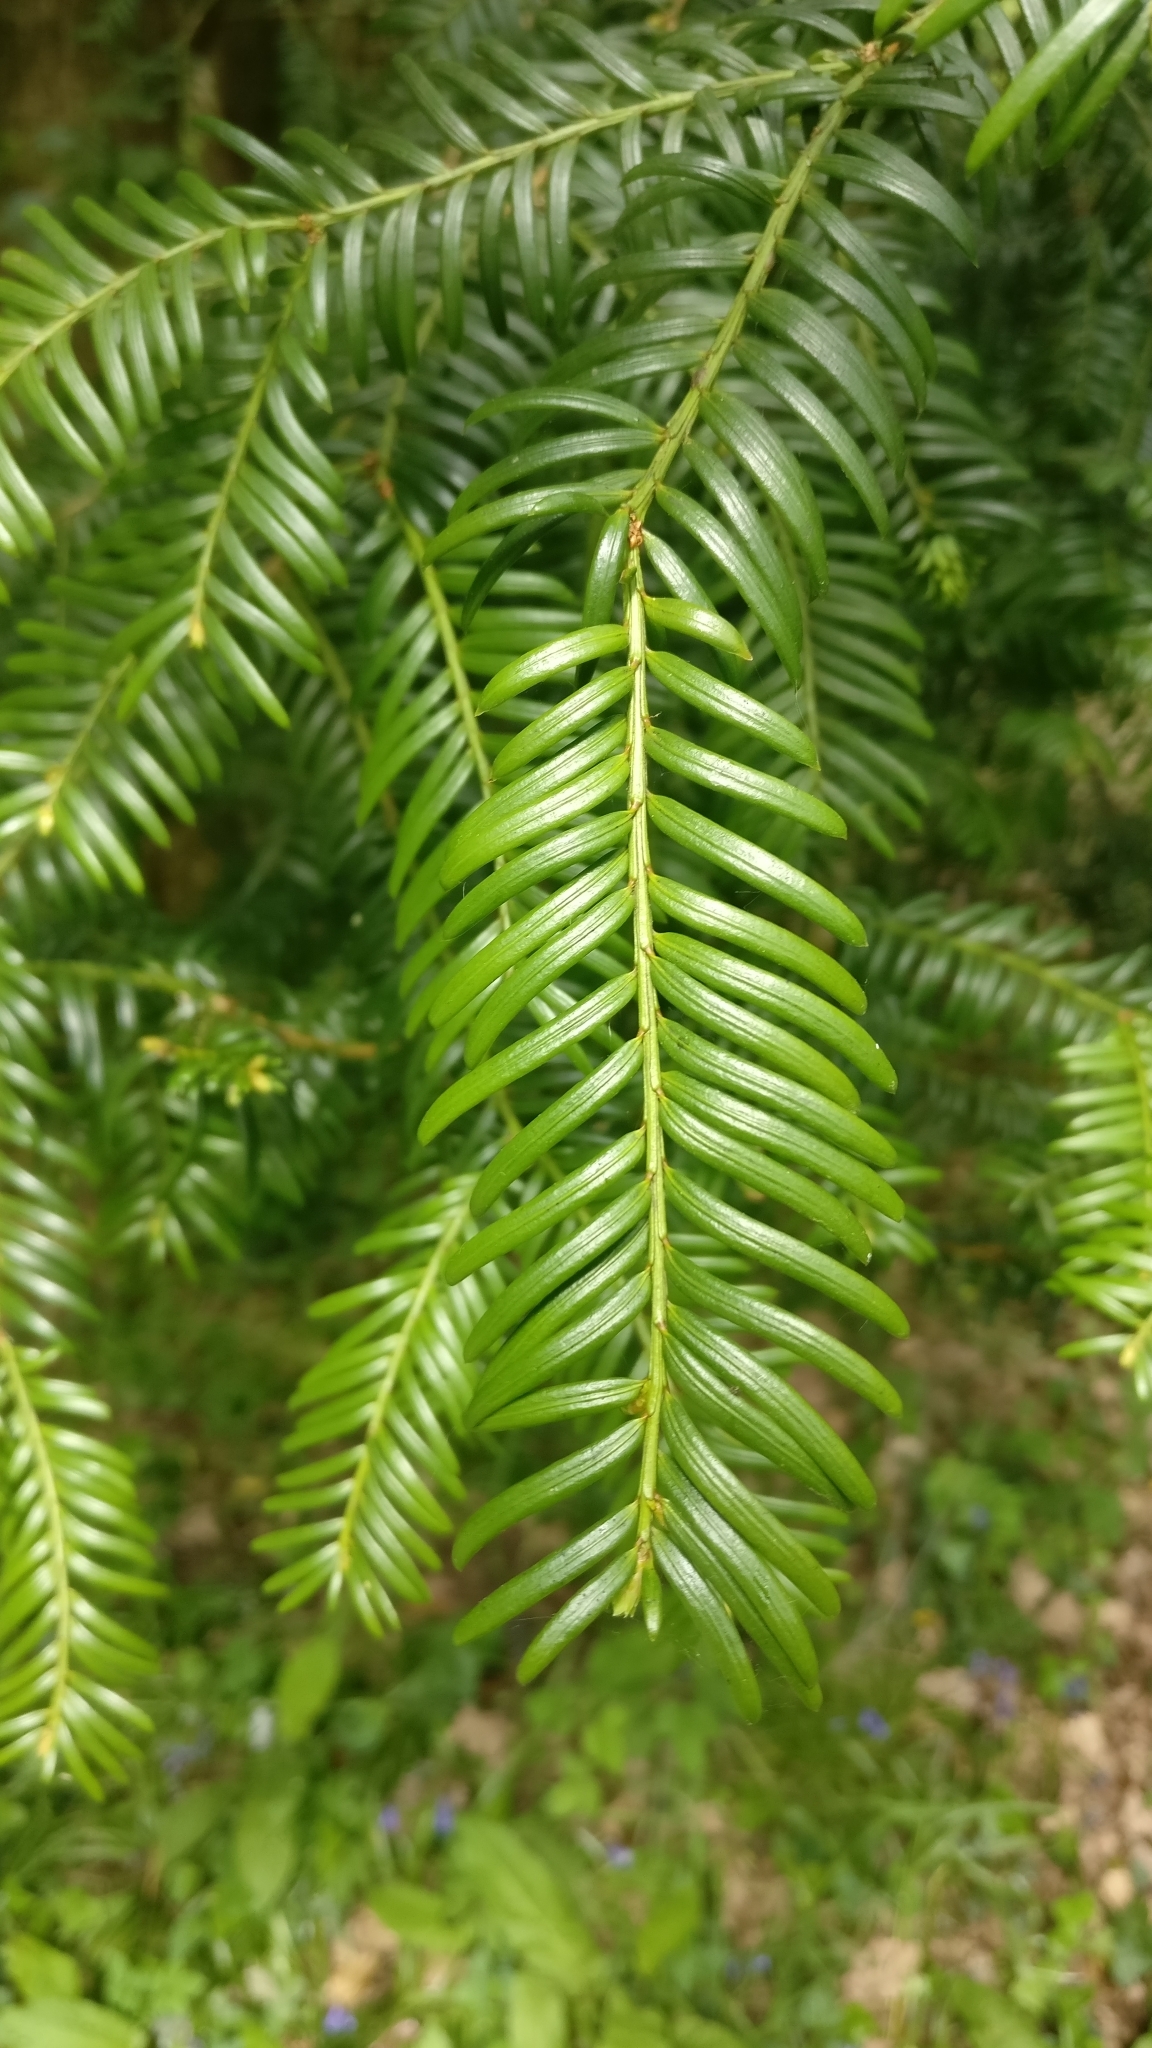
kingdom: Plantae
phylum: Tracheophyta
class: Pinopsida
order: Pinales
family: Taxaceae
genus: Taxus
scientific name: Taxus baccata
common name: Yew
